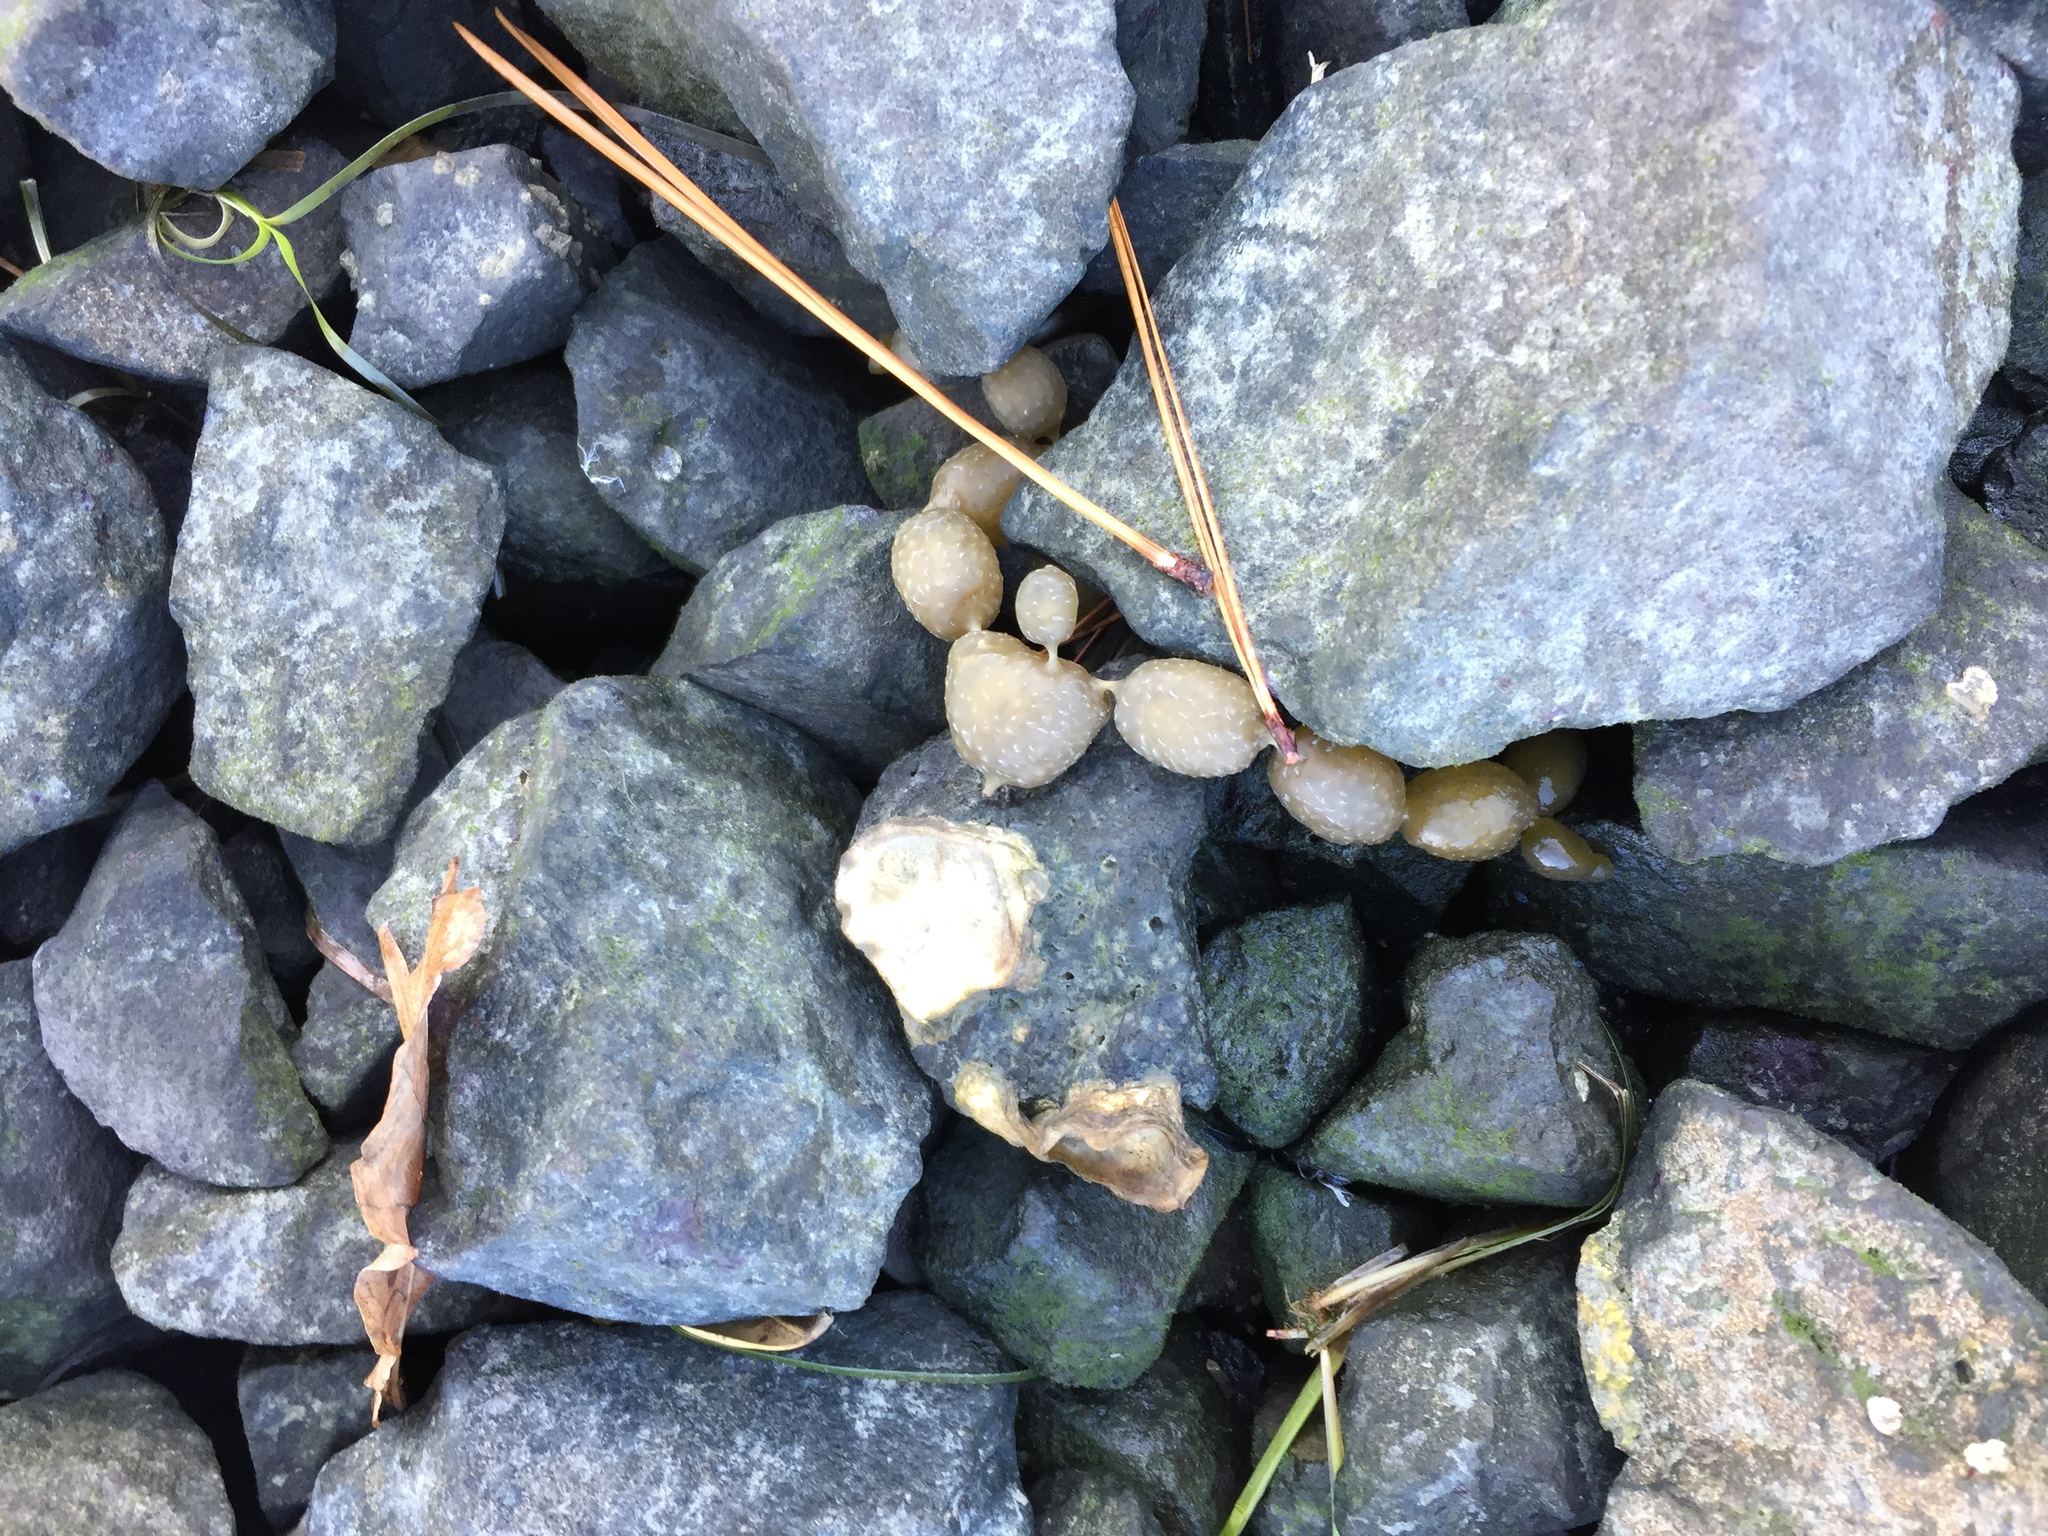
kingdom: Chromista
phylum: Ochrophyta
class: Phaeophyceae
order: Fucales
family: Hormosiraceae
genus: Hormosira
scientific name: Hormosira banksii
